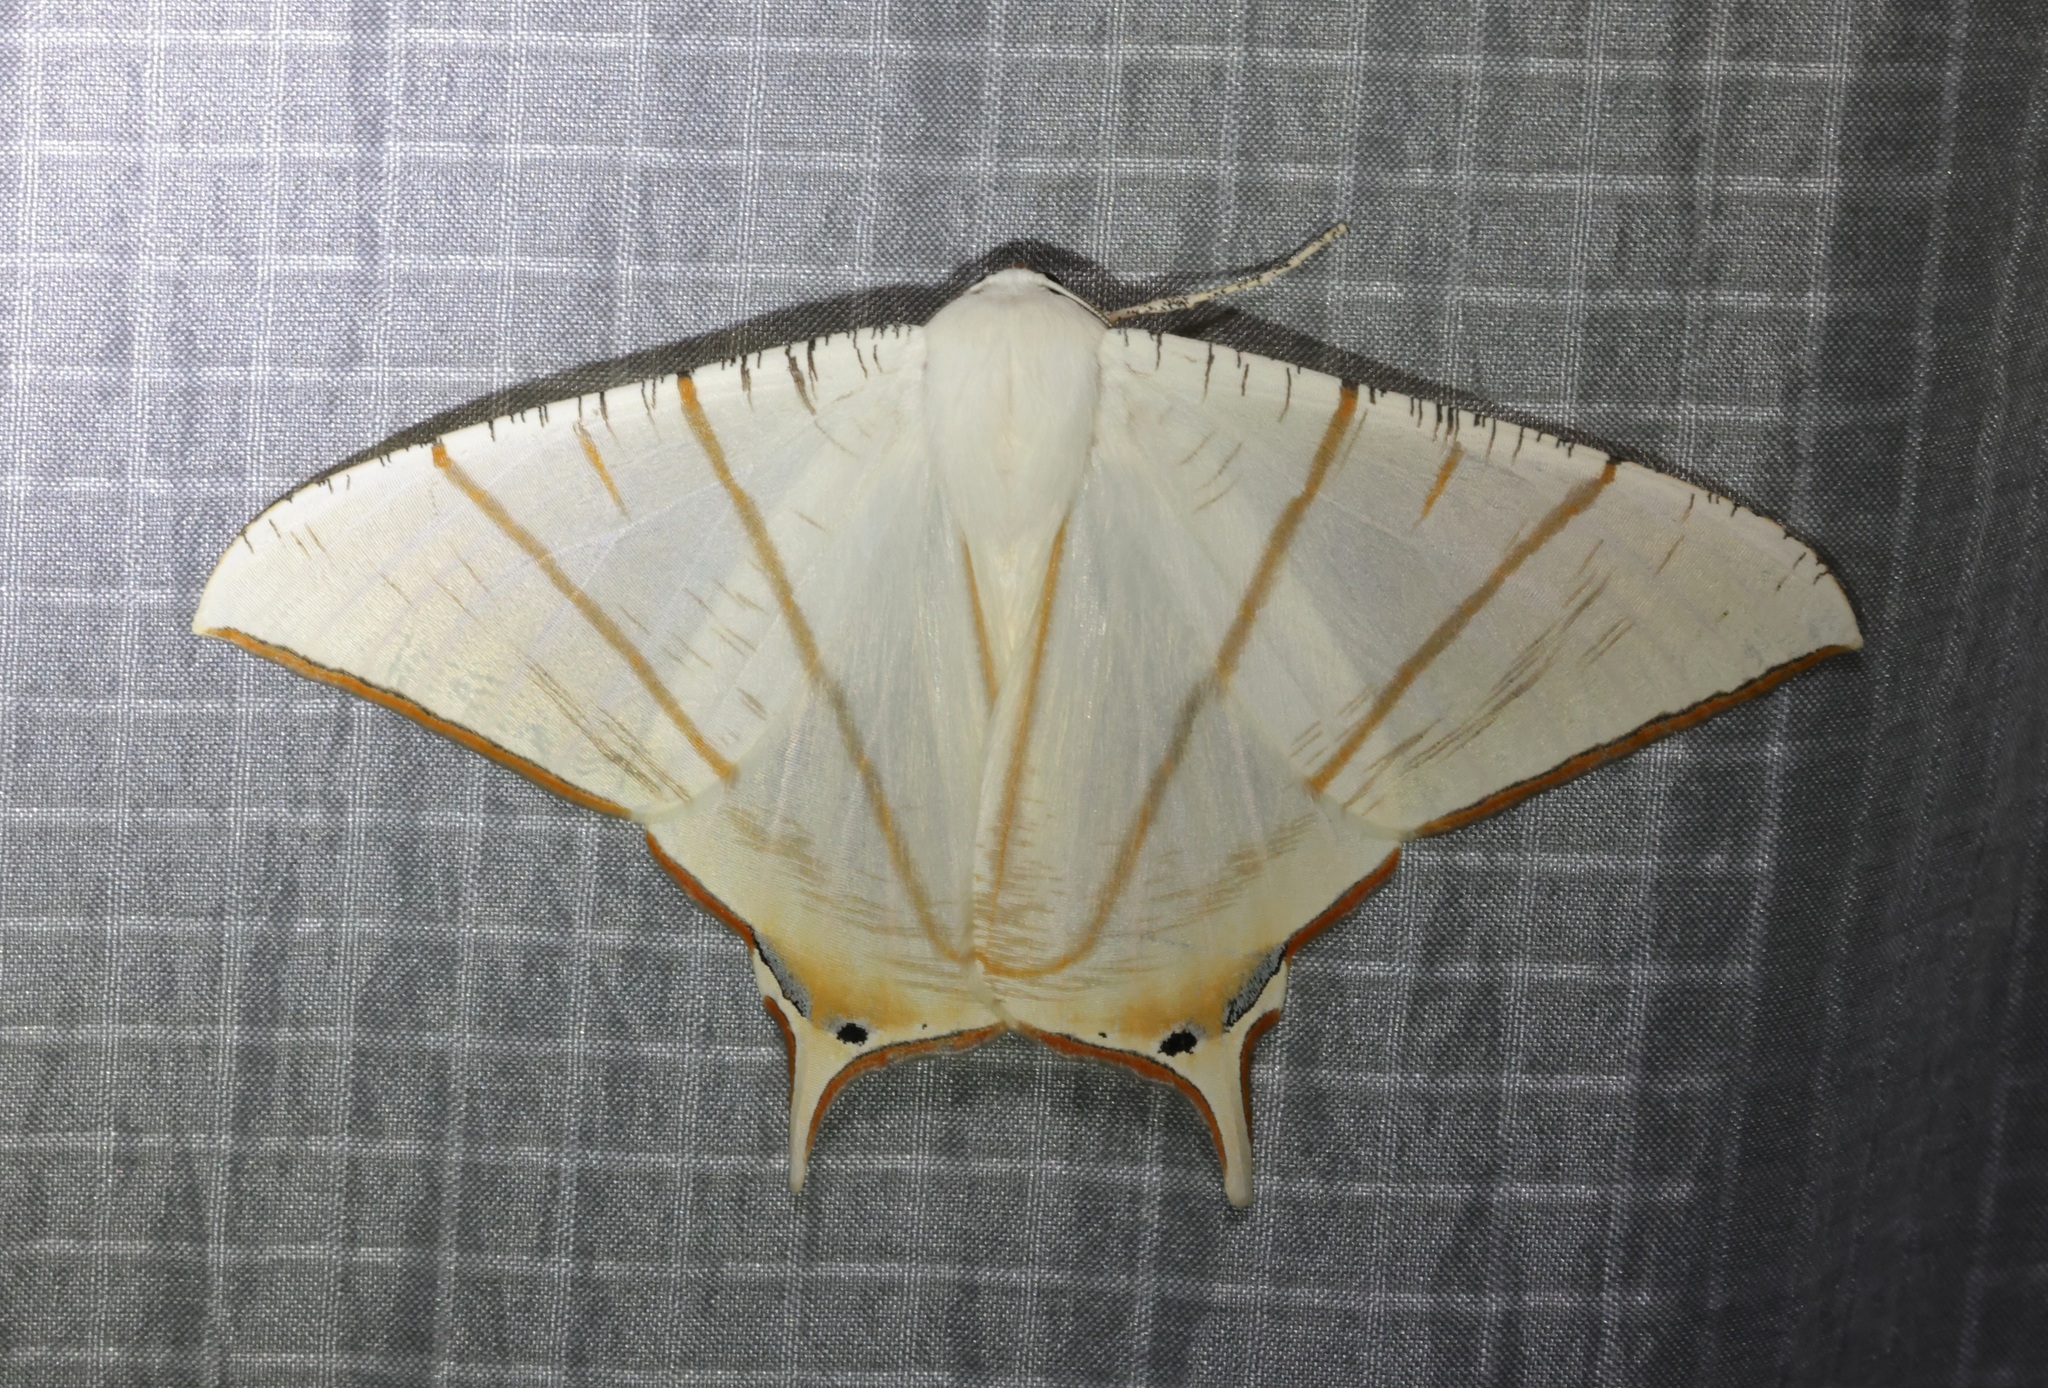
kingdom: Animalia
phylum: Arthropoda
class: Insecta
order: Lepidoptera
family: Geometridae
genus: Ourapteryx
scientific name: Ourapteryx clara
